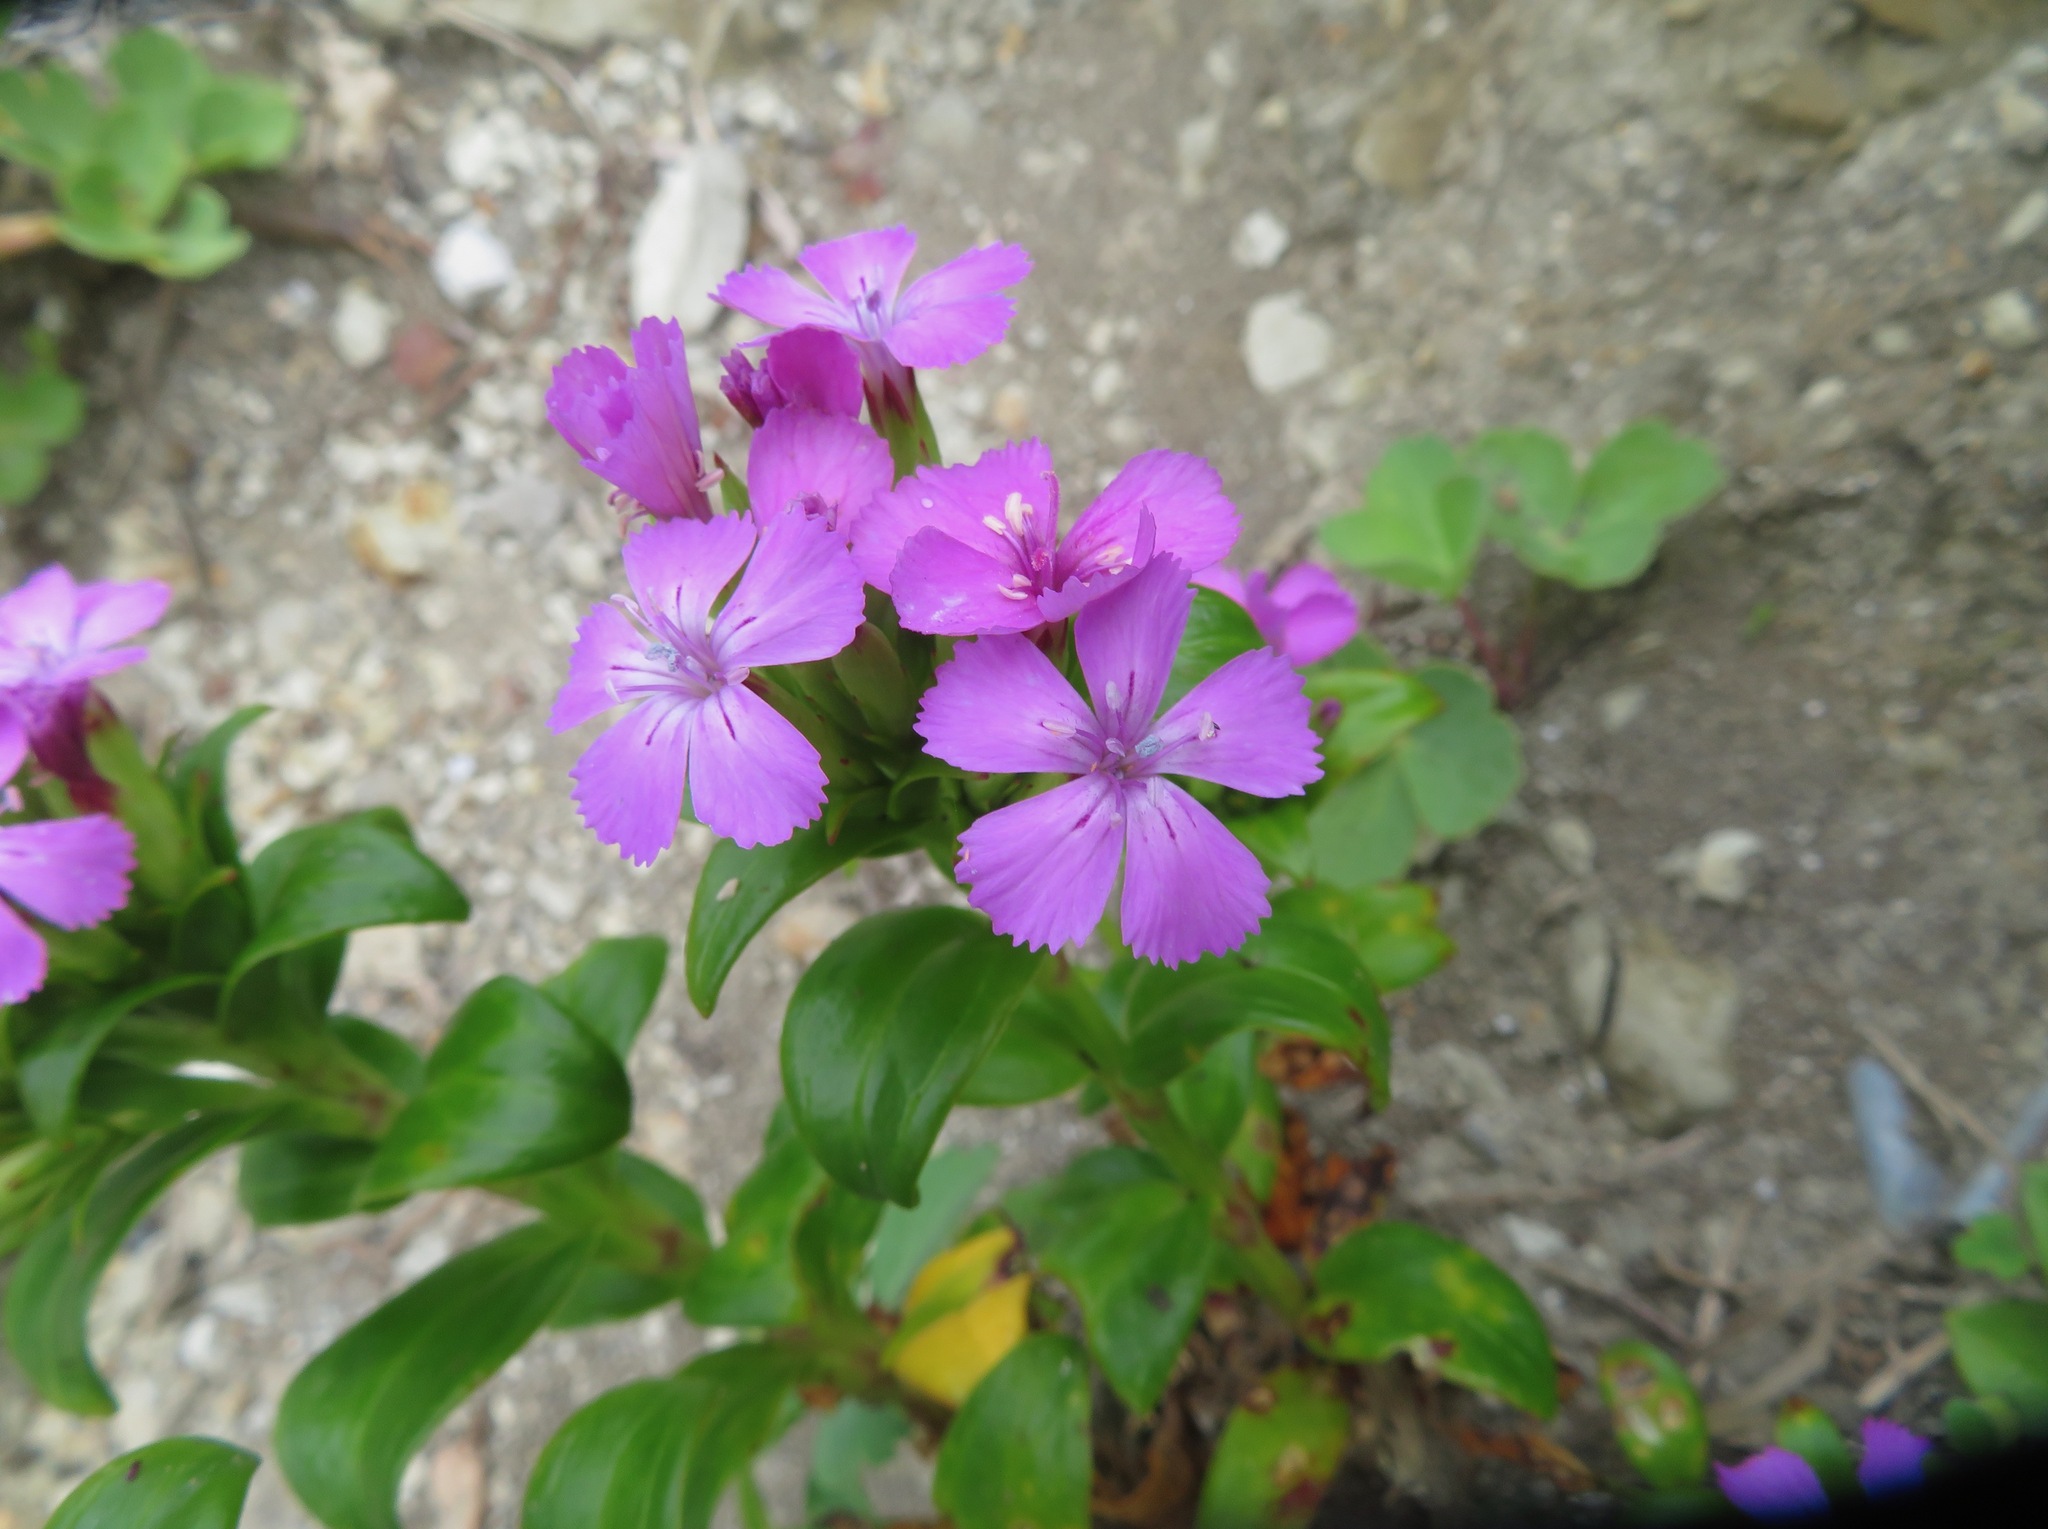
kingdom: Plantae
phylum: Tracheophyta
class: Magnoliopsida
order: Caryophyllales
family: Caryophyllaceae
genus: Dianthus
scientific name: Dianthus japonicus
